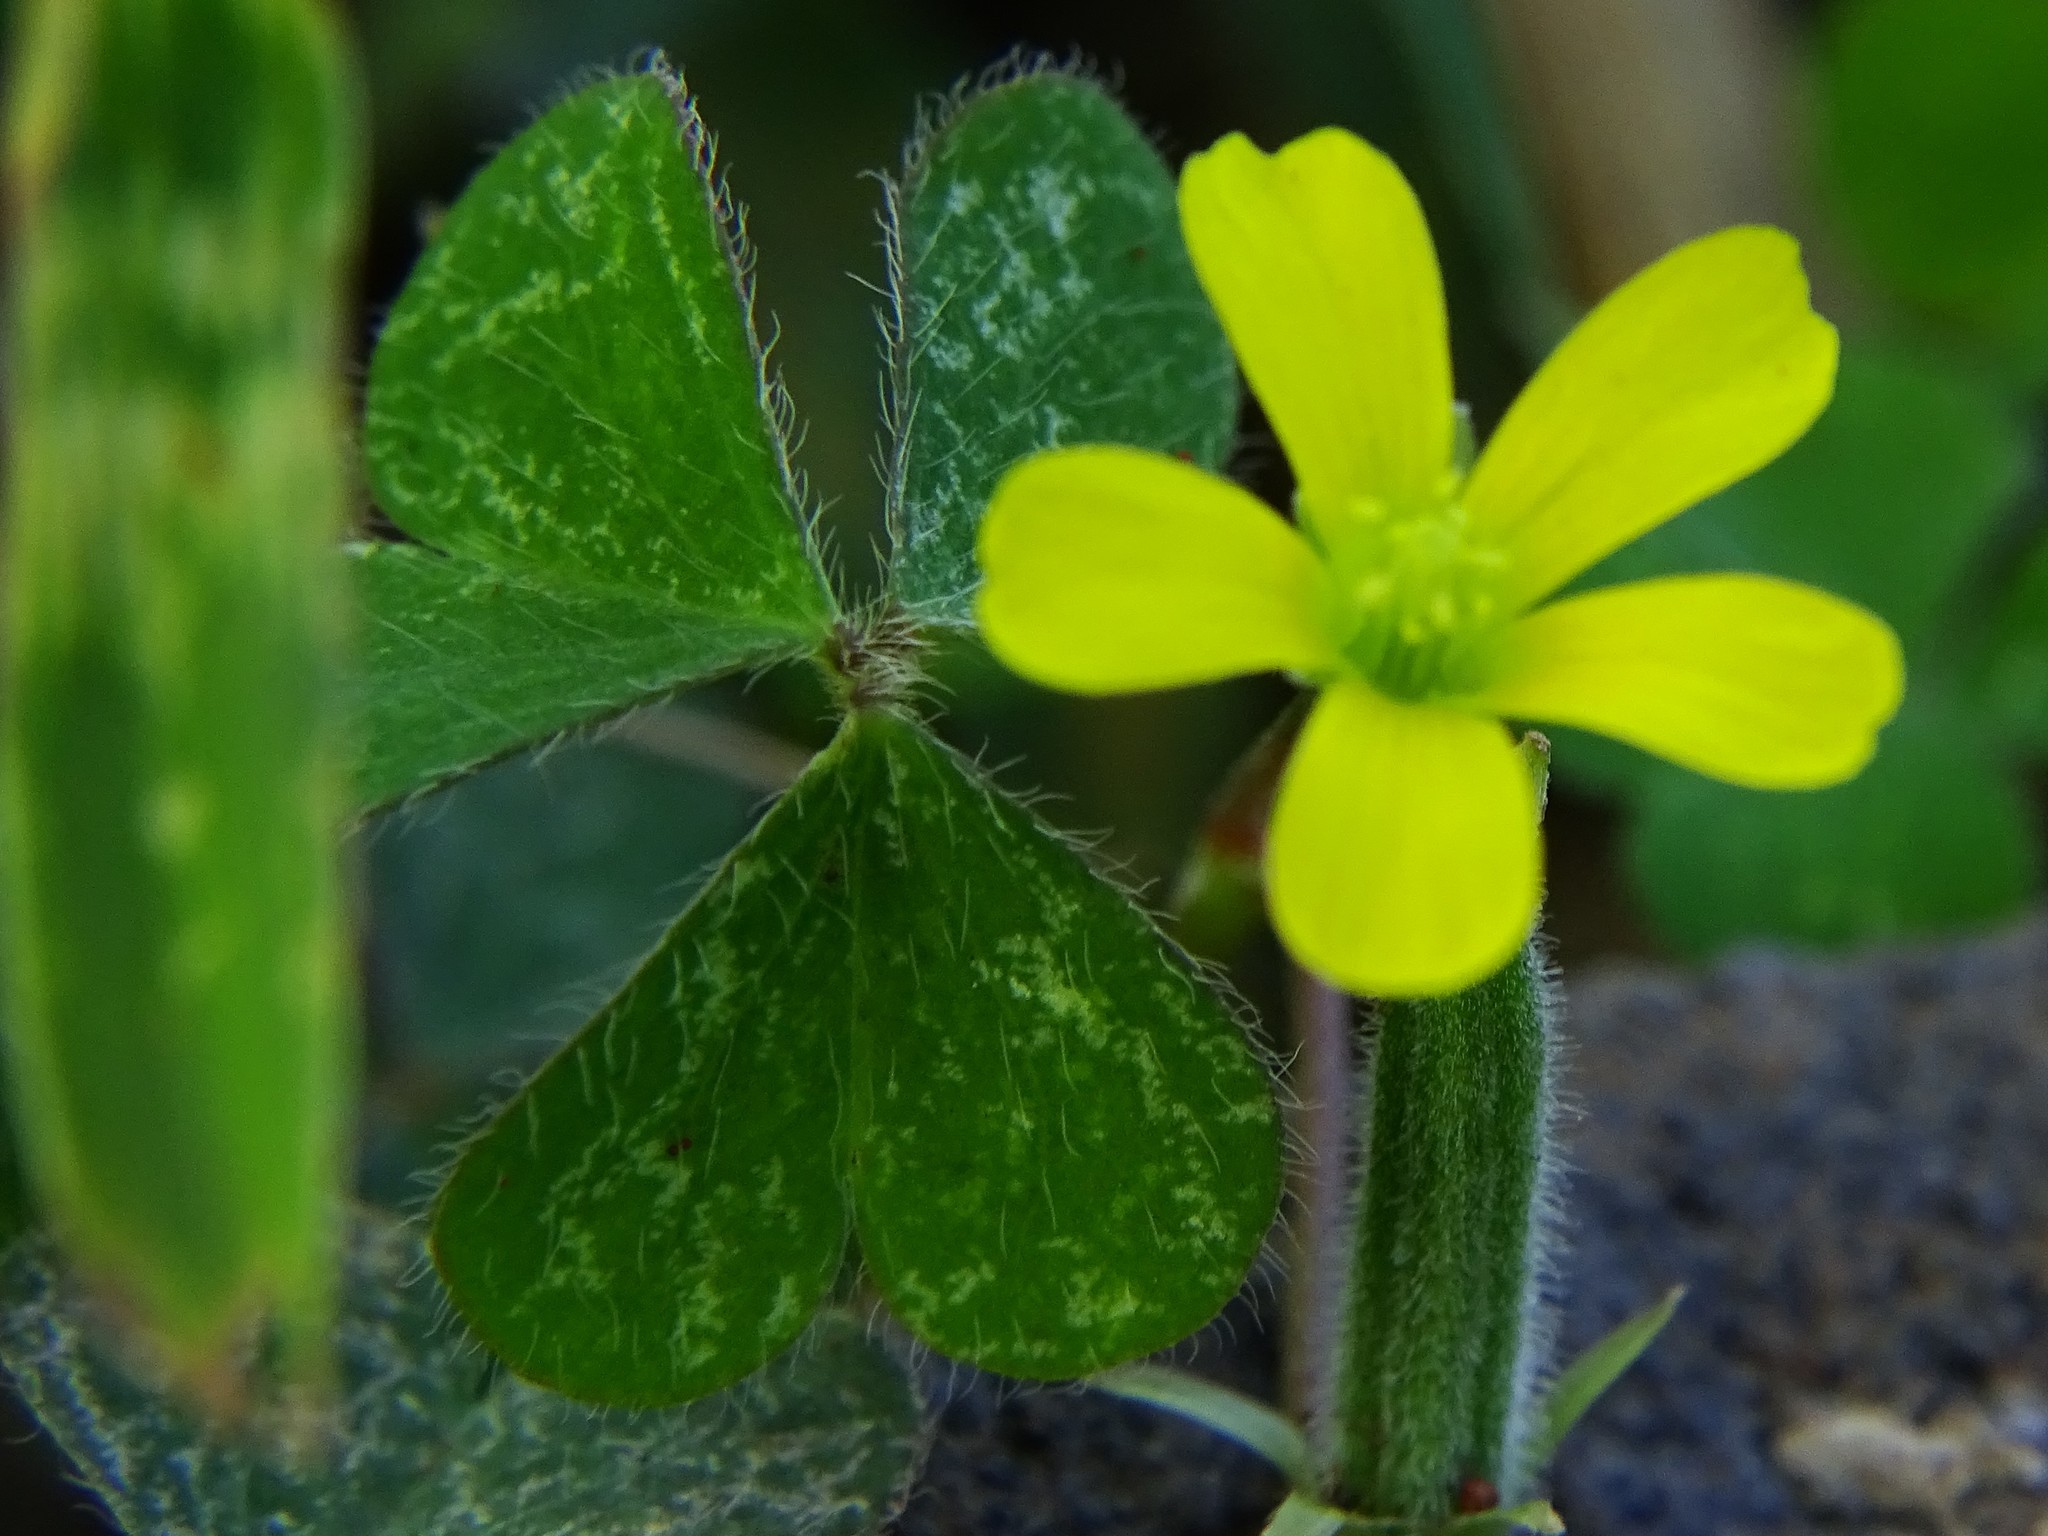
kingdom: Plantae
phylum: Tracheophyta
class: Magnoliopsida
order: Oxalidales
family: Oxalidaceae
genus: Oxalis
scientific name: Oxalis corniculata
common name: Procumbent yellow-sorrel
